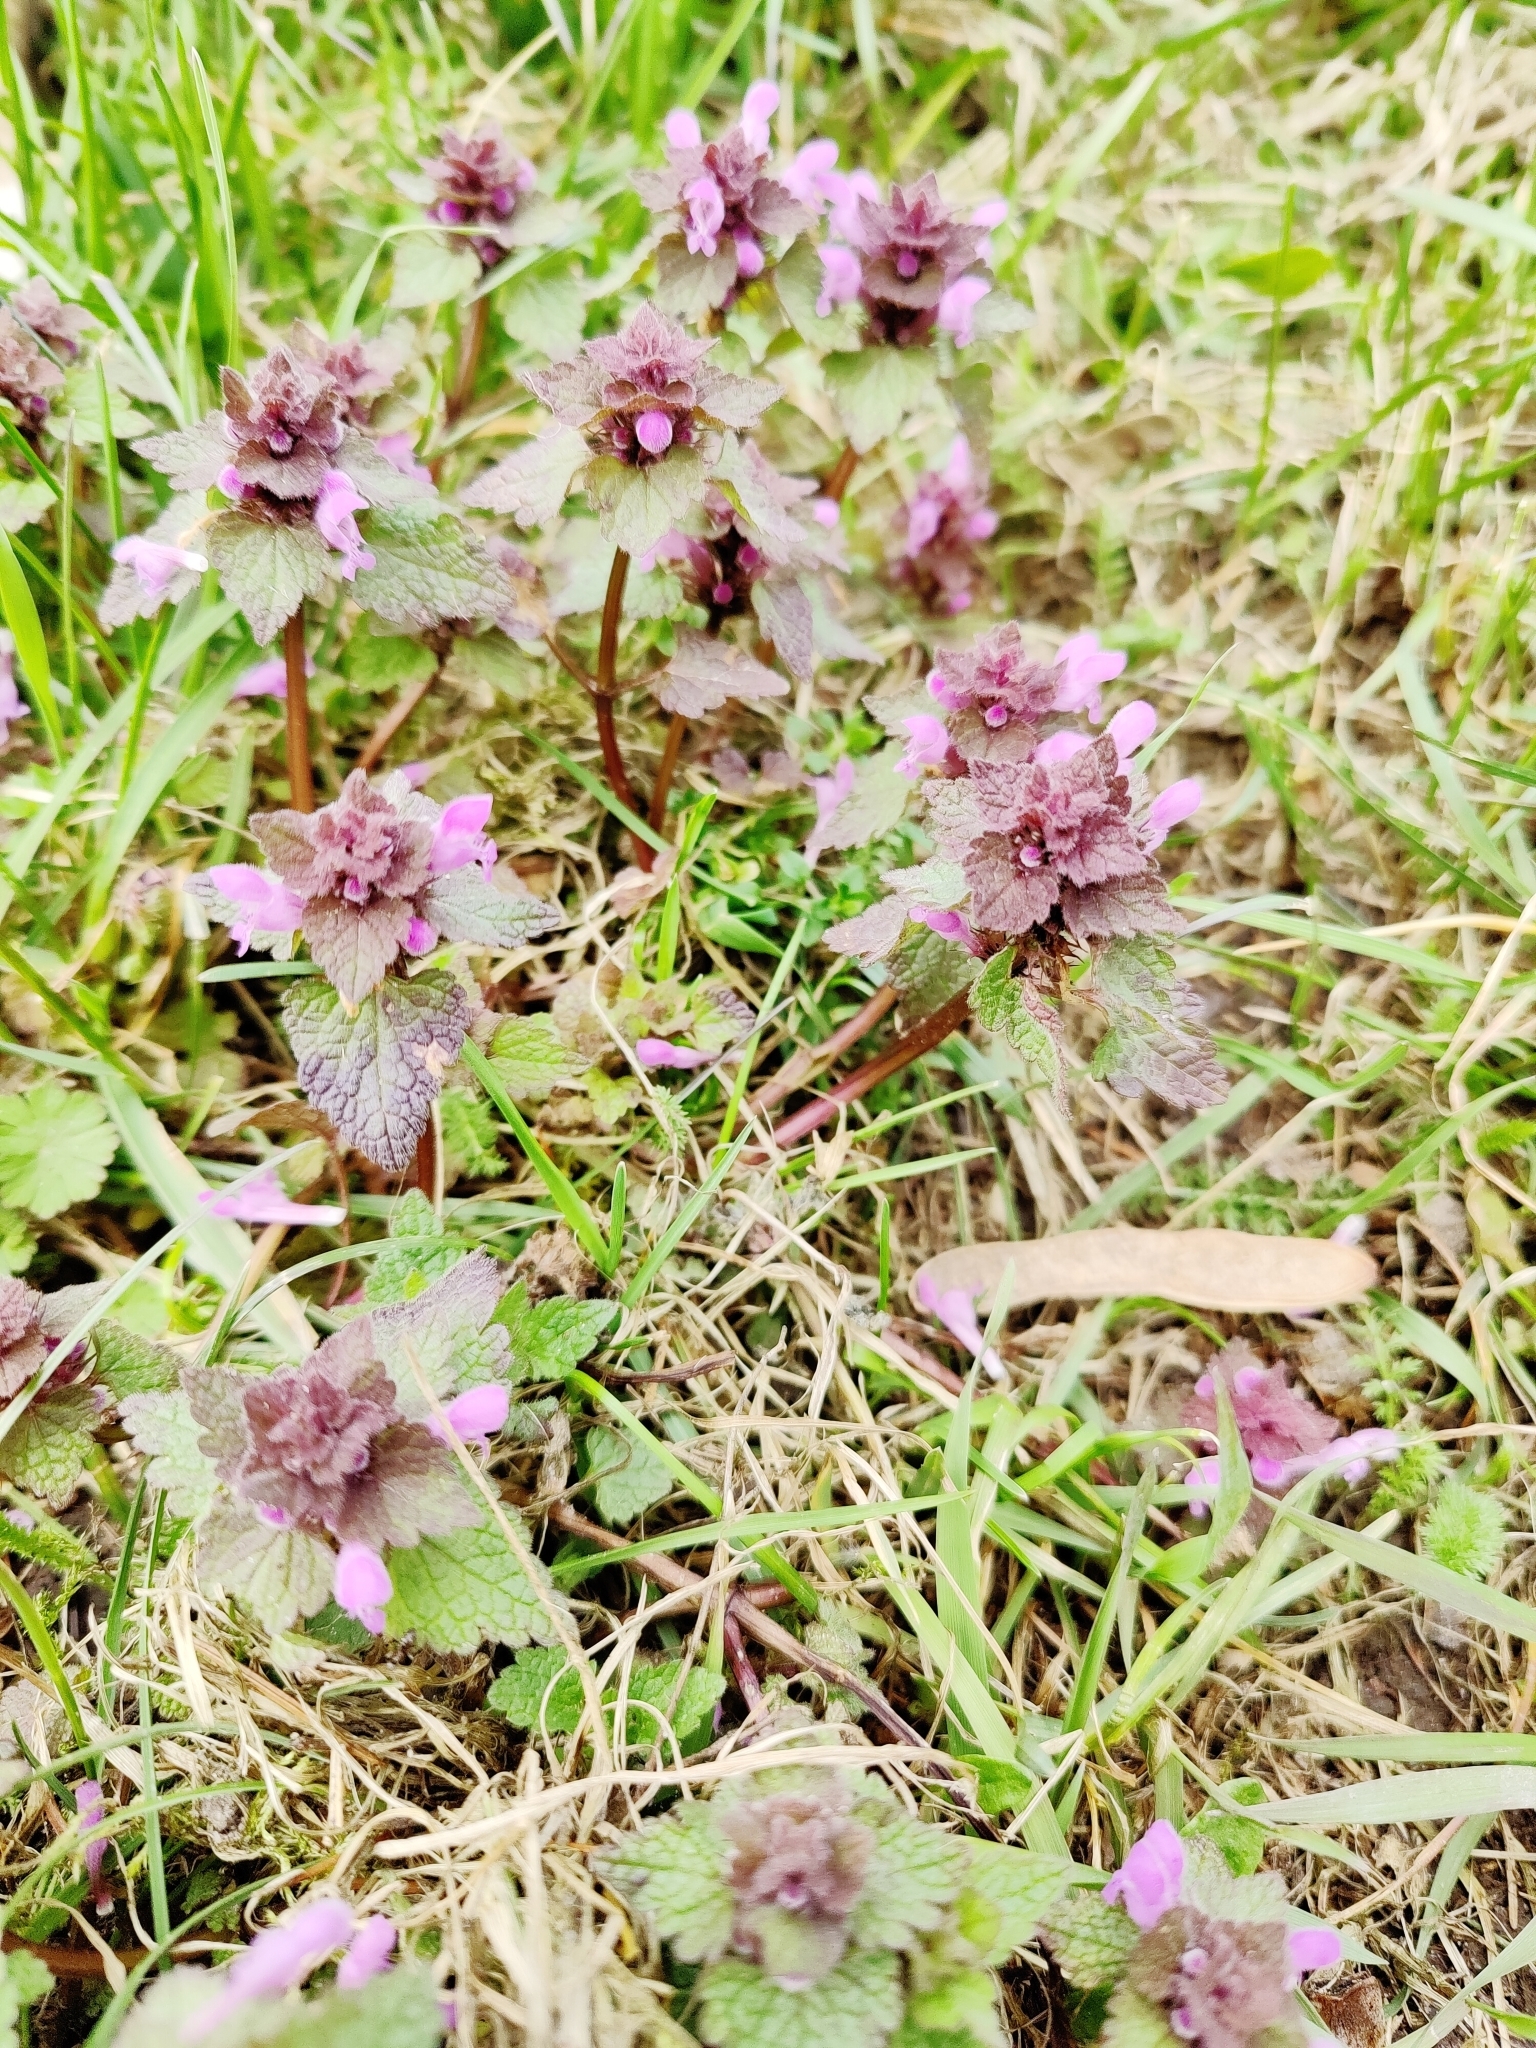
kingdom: Plantae
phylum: Tracheophyta
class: Magnoliopsida
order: Lamiales
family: Lamiaceae
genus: Lamium
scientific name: Lamium purpureum
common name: Red dead-nettle
